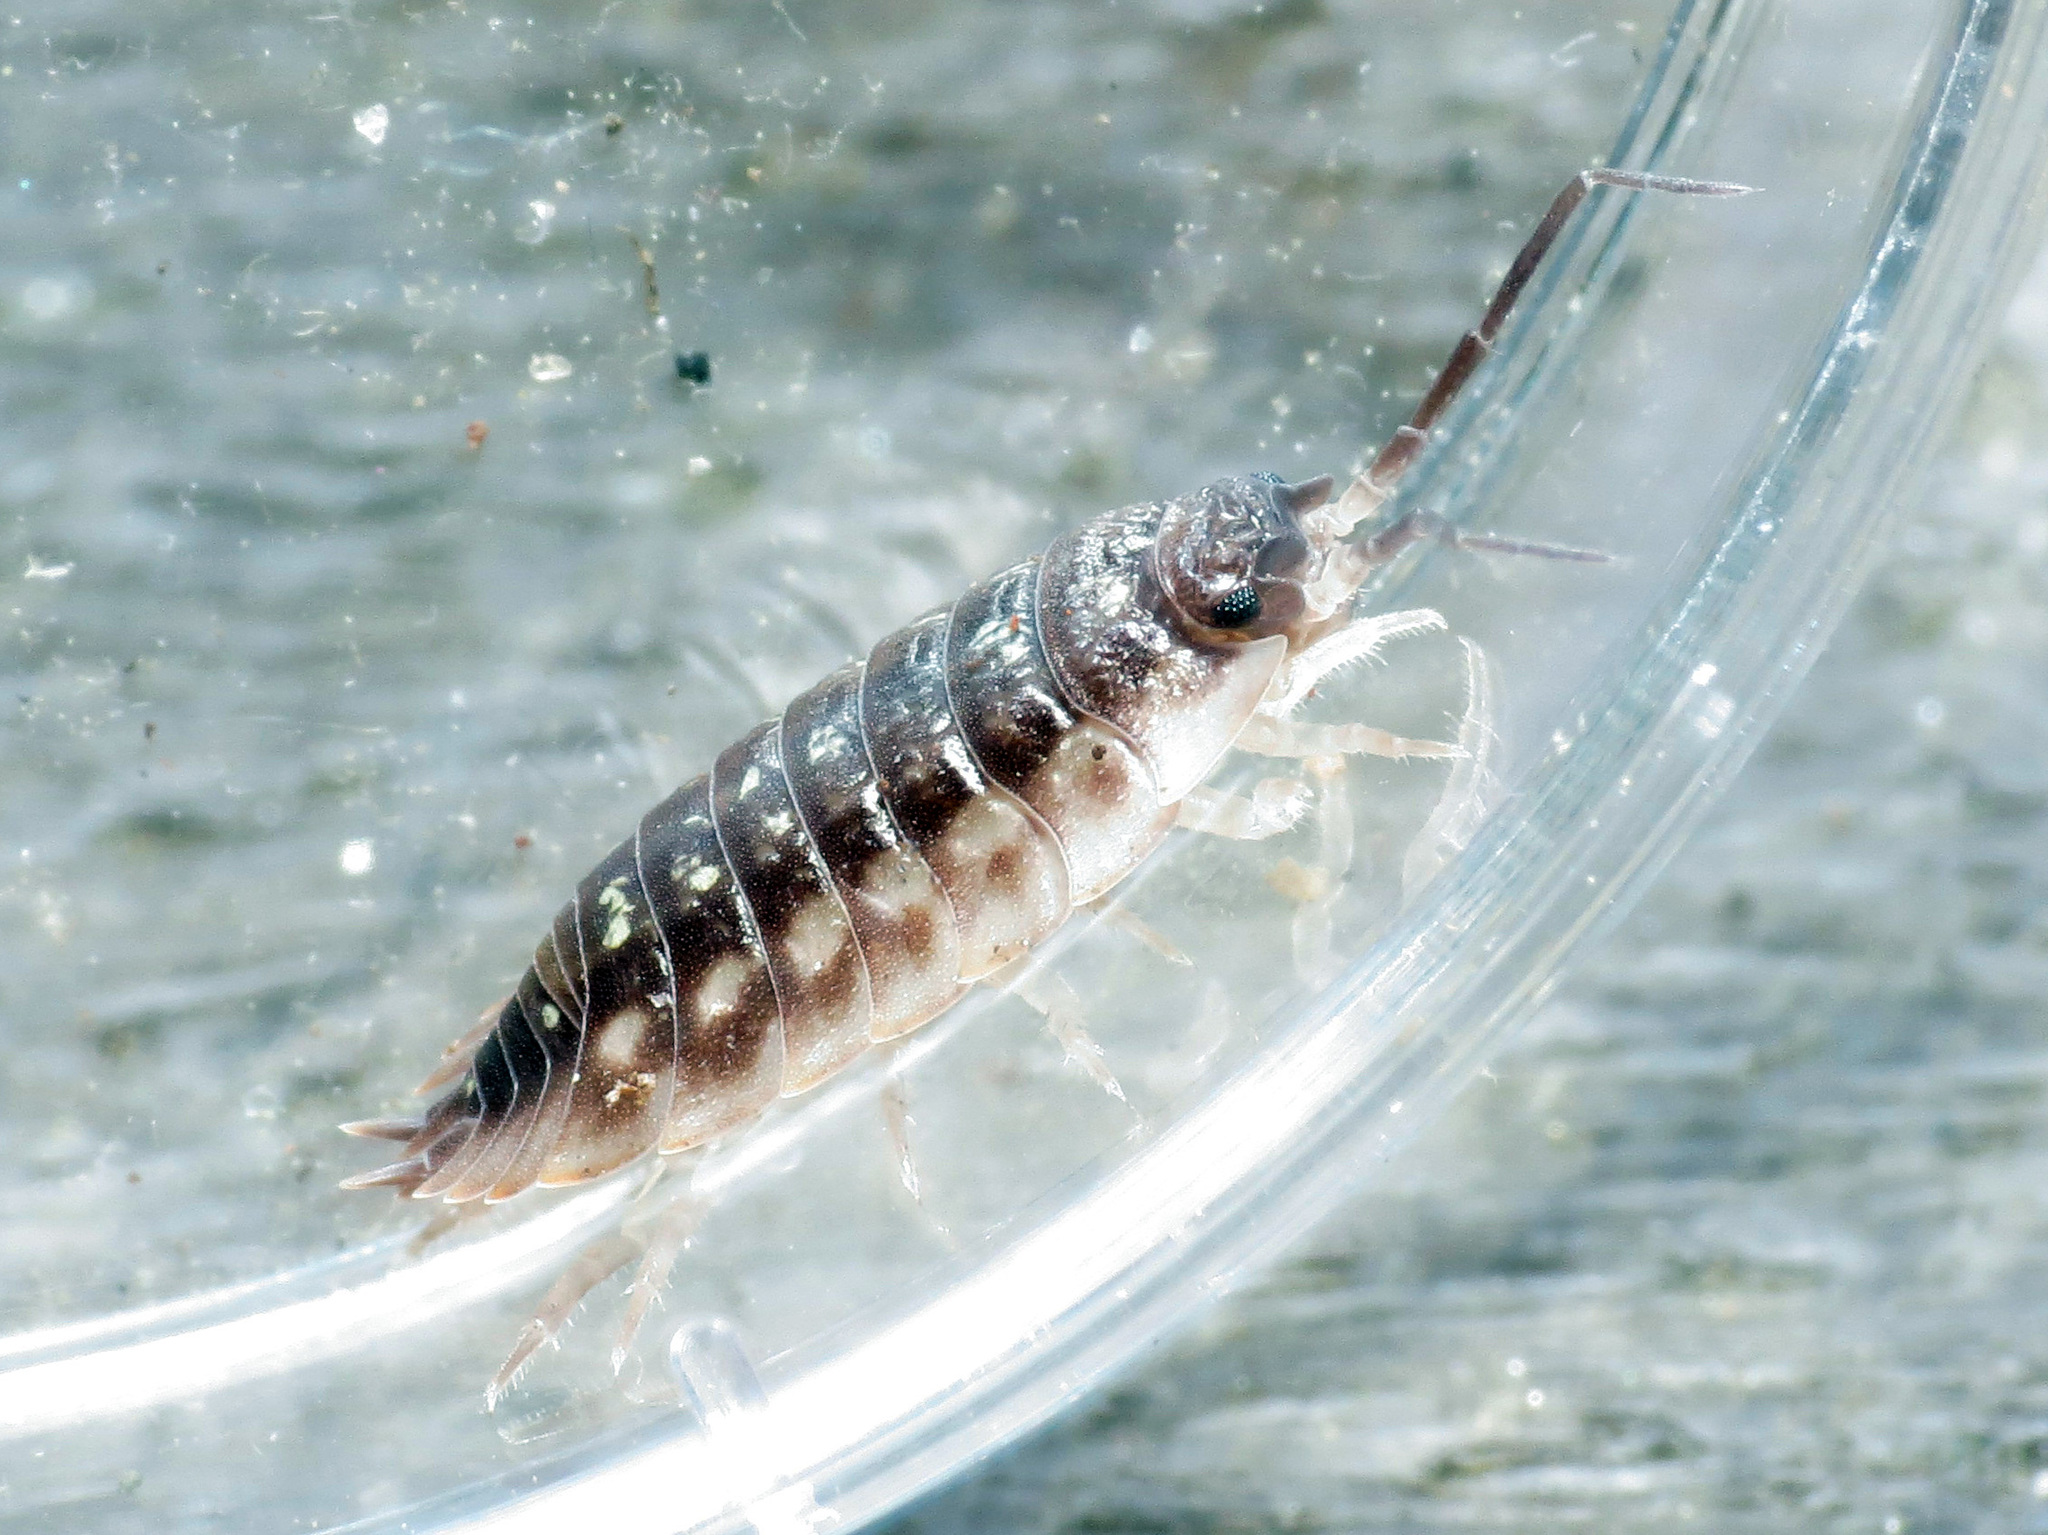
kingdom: Animalia
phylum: Arthropoda
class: Malacostraca
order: Isopoda
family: Oniscidae
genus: Oniscus
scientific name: Oniscus asellus
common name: Common shiny woodlouse
